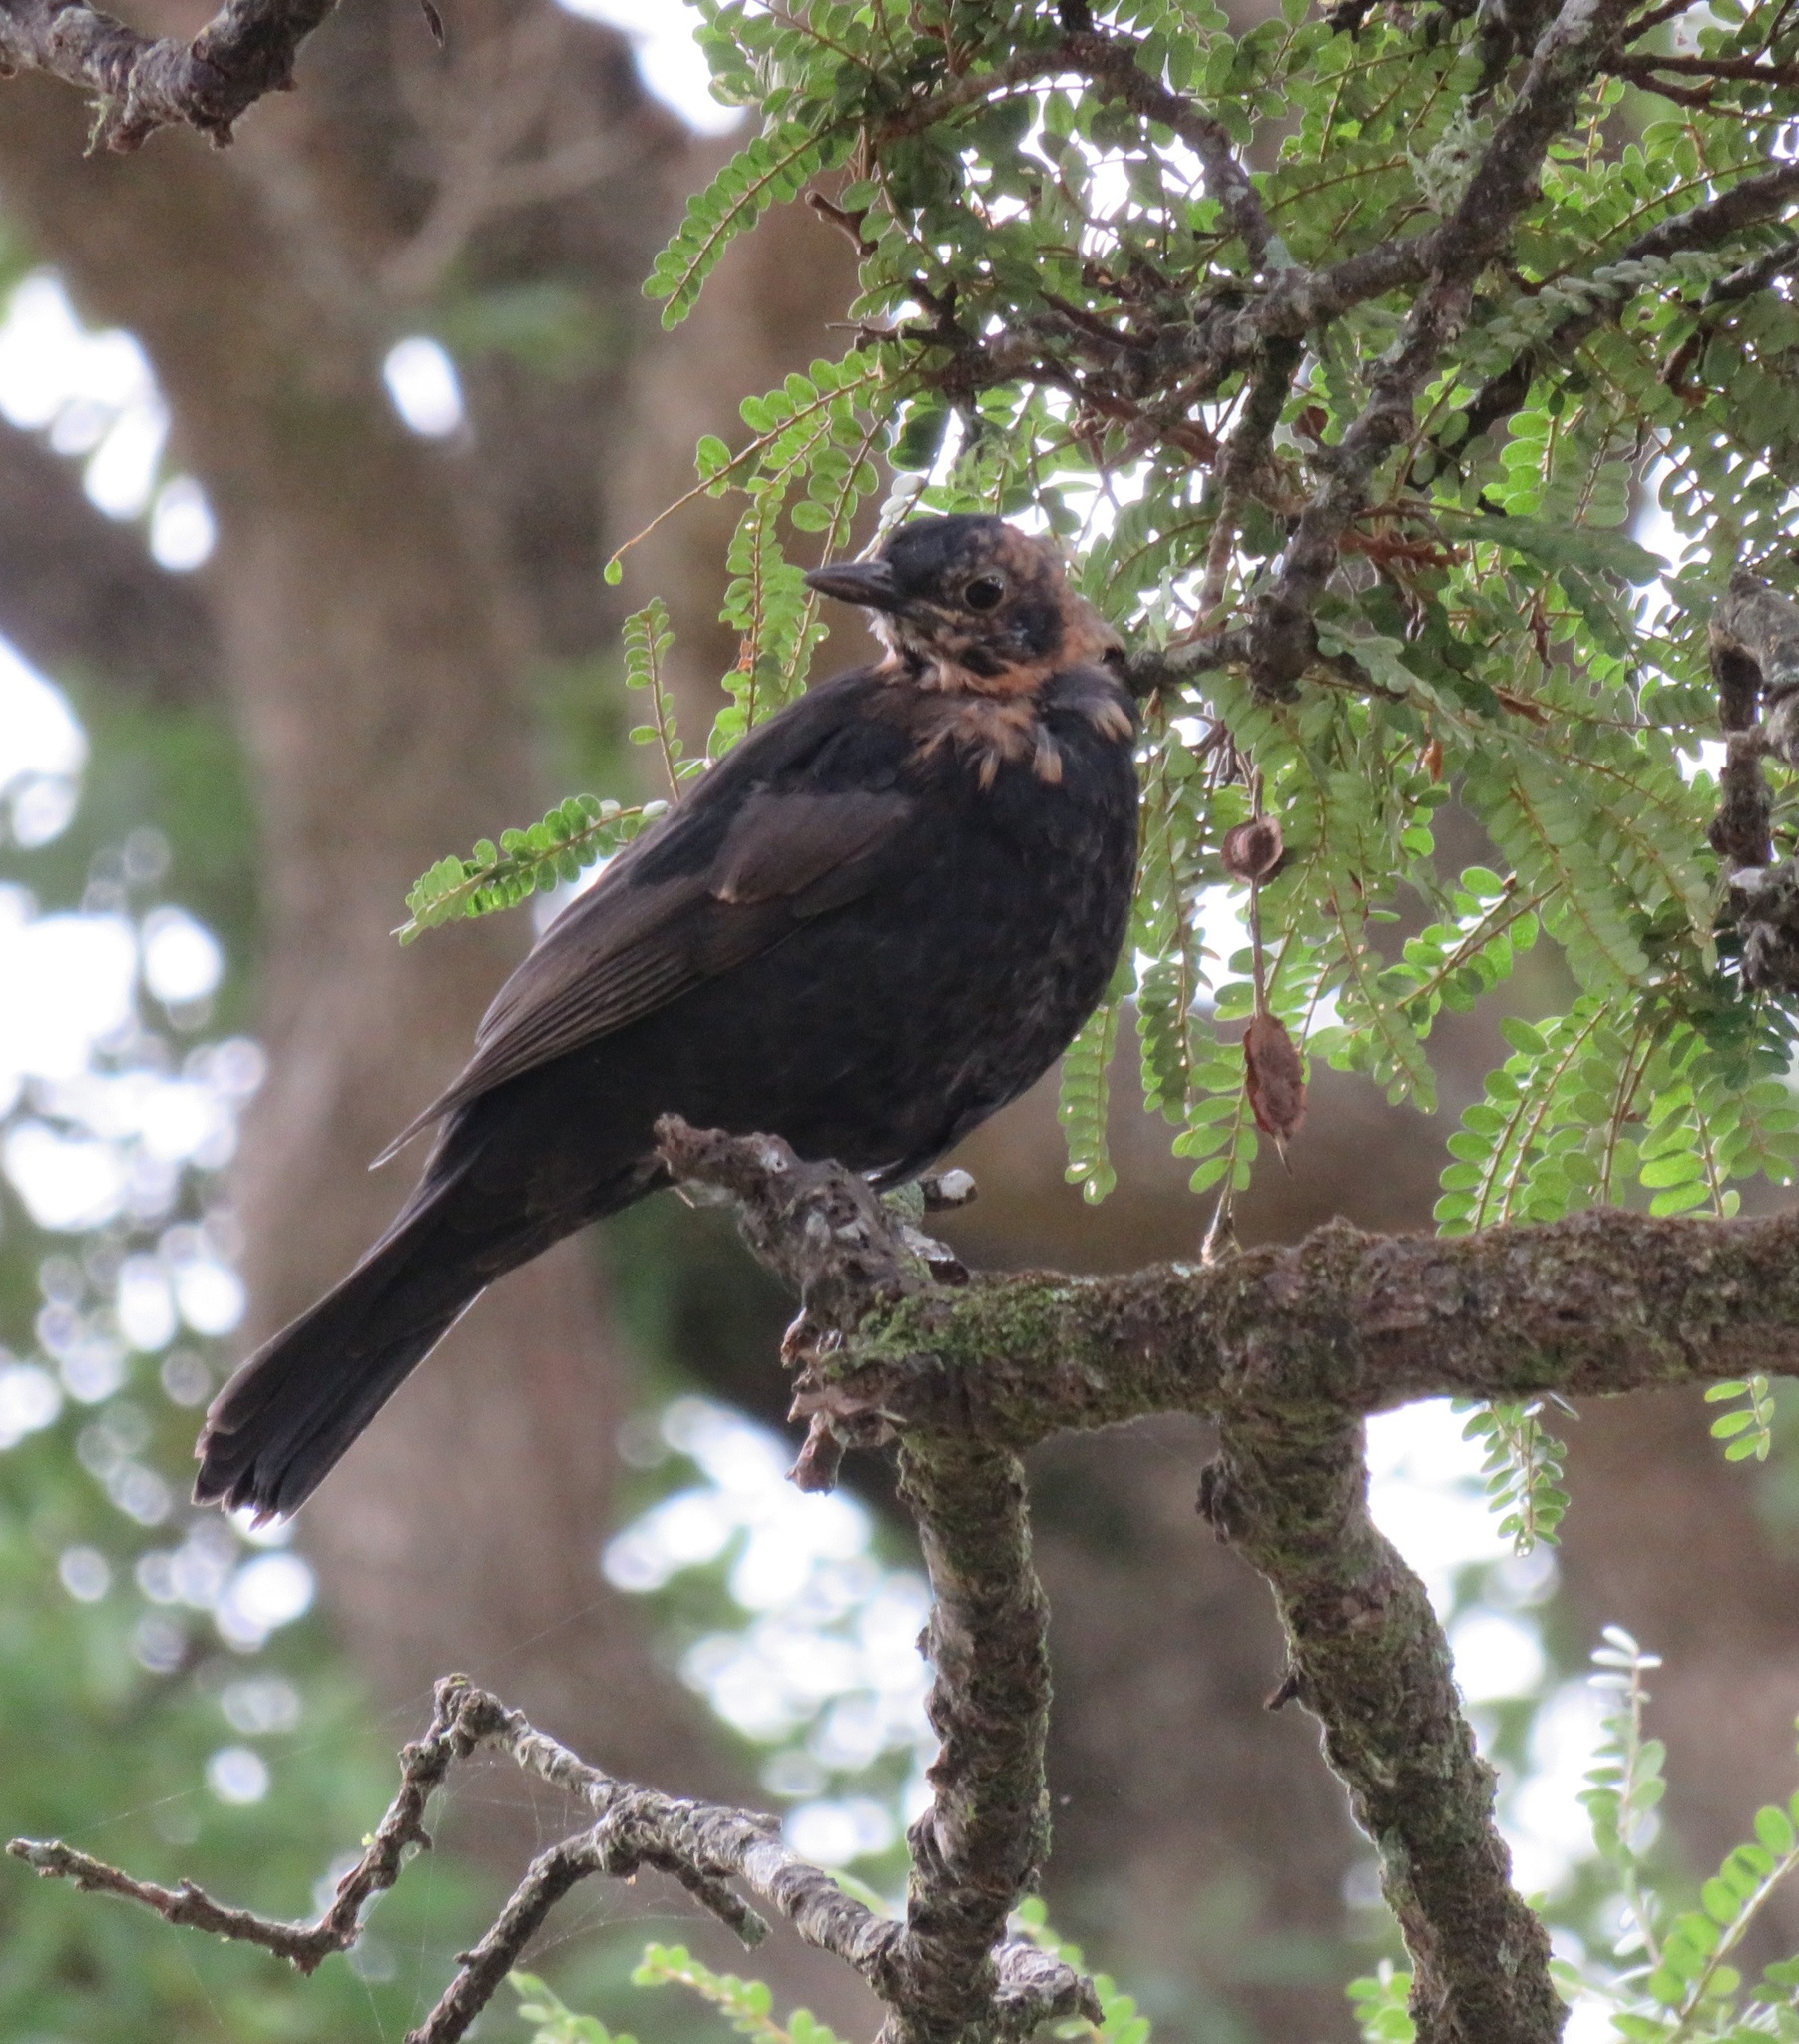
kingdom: Animalia
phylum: Chordata
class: Aves
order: Passeriformes
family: Turdidae
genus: Turdus
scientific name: Turdus merula
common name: Common blackbird
